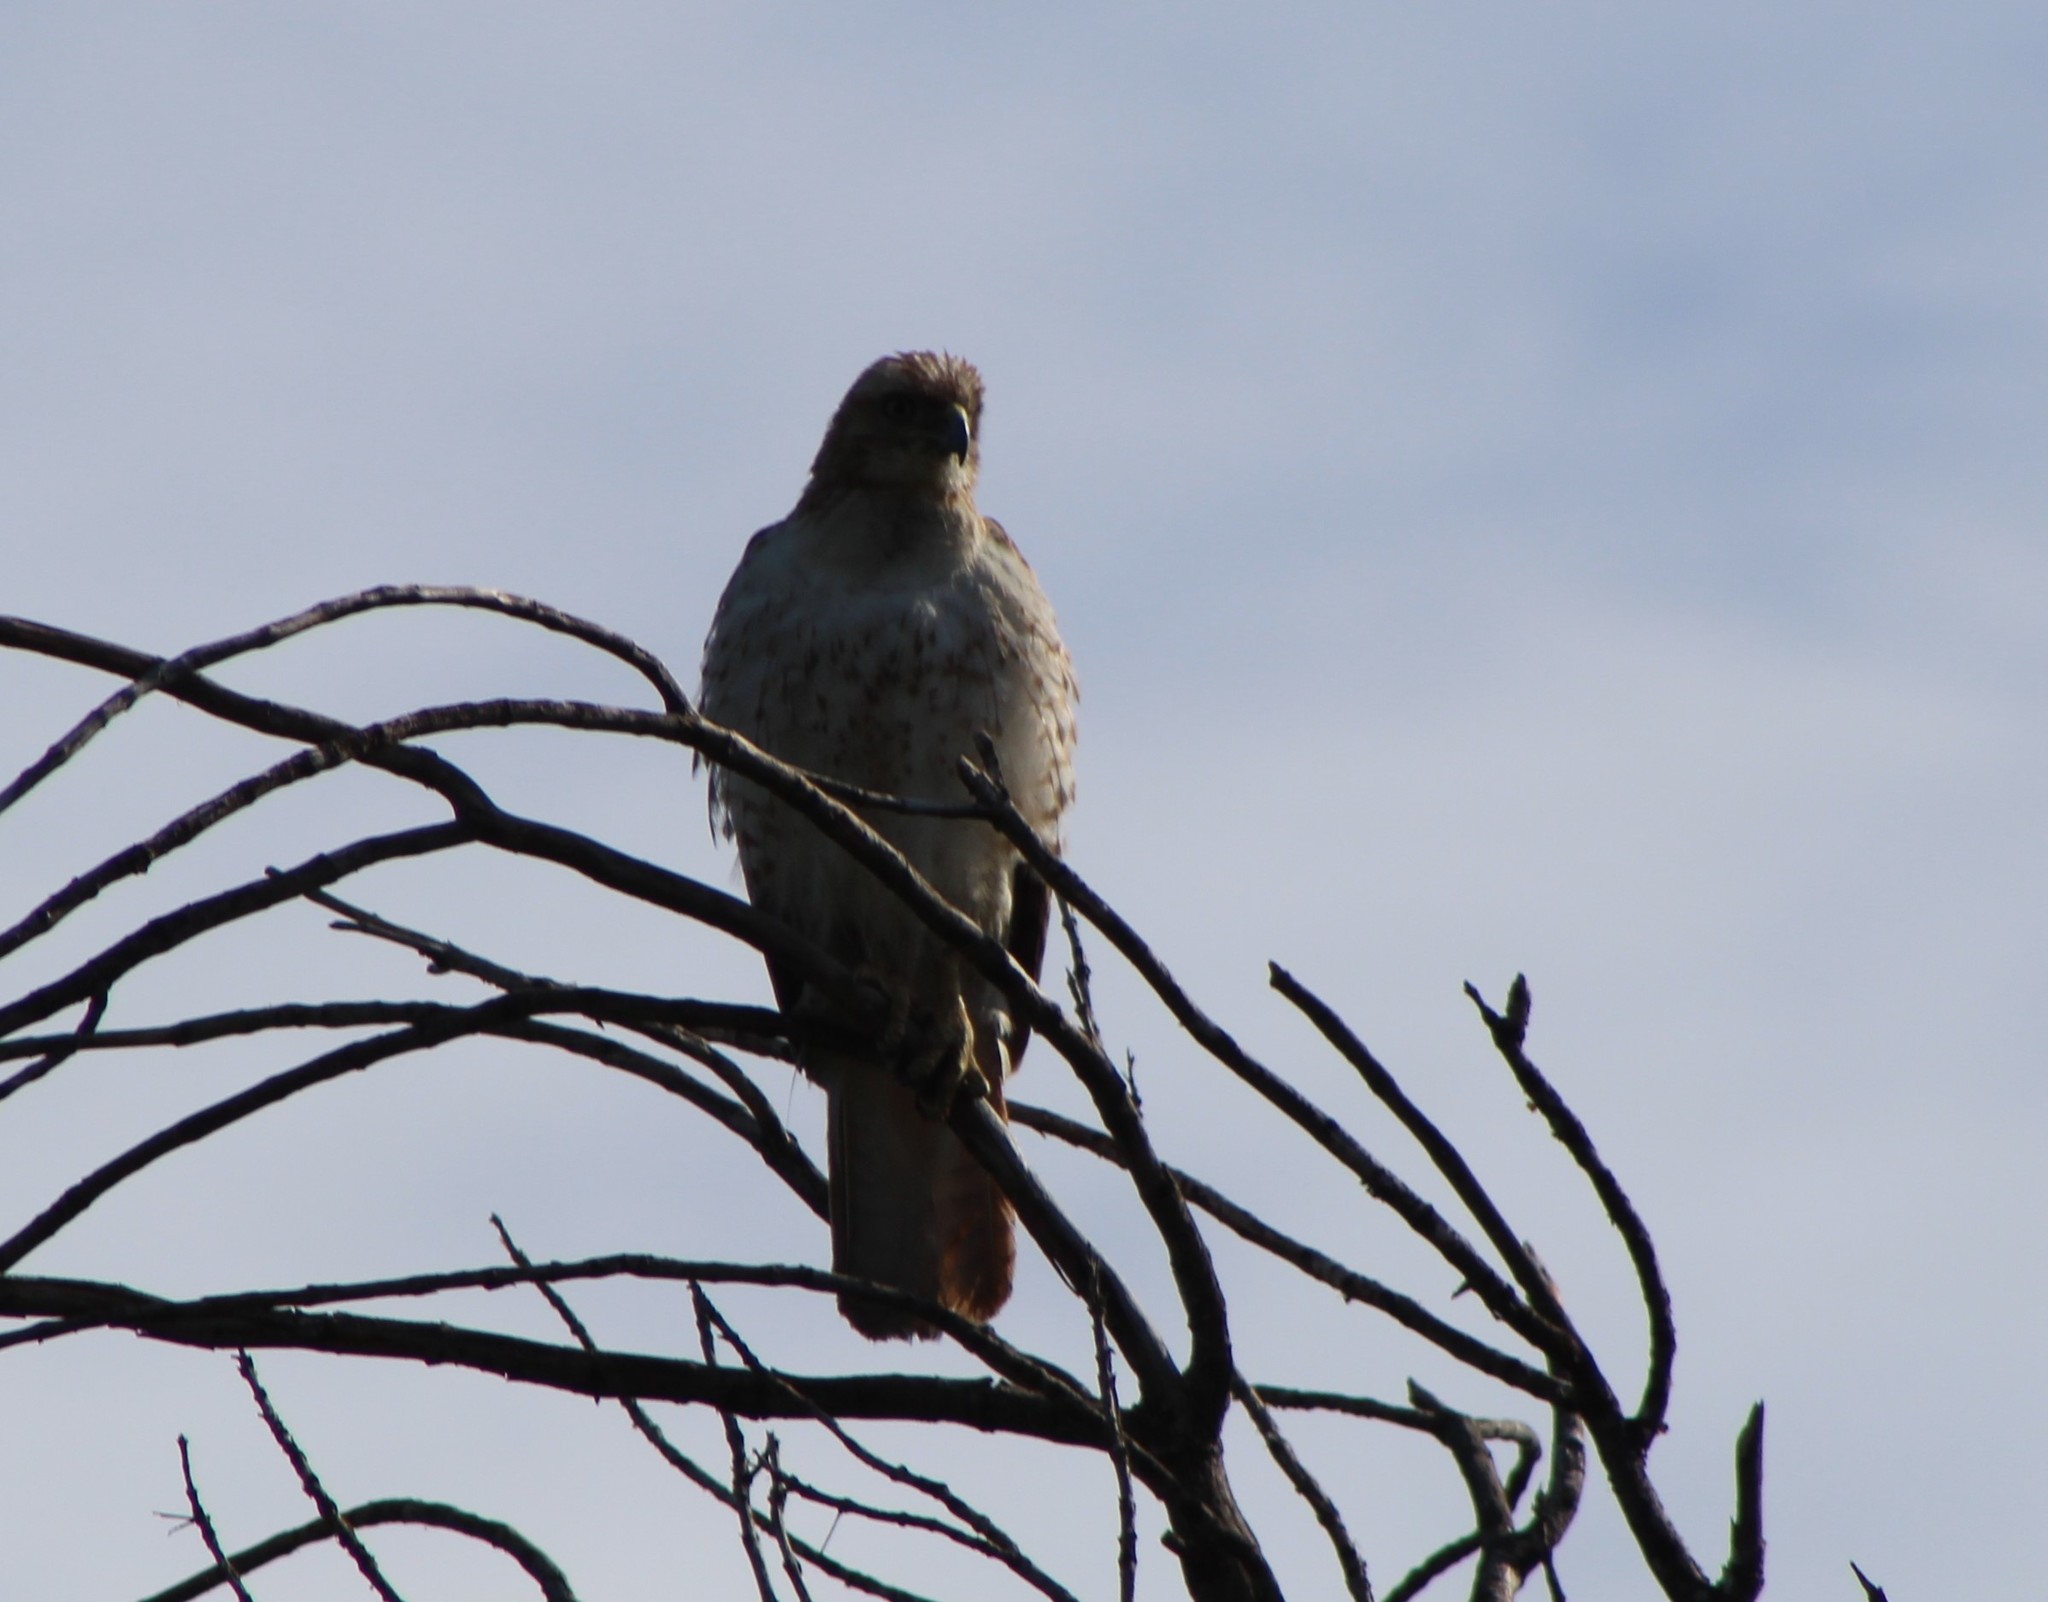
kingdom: Animalia
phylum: Chordata
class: Aves
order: Accipitriformes
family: Accipitridae
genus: Buteo
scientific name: Buteo jamaicensis
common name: Red-tailed hawk
